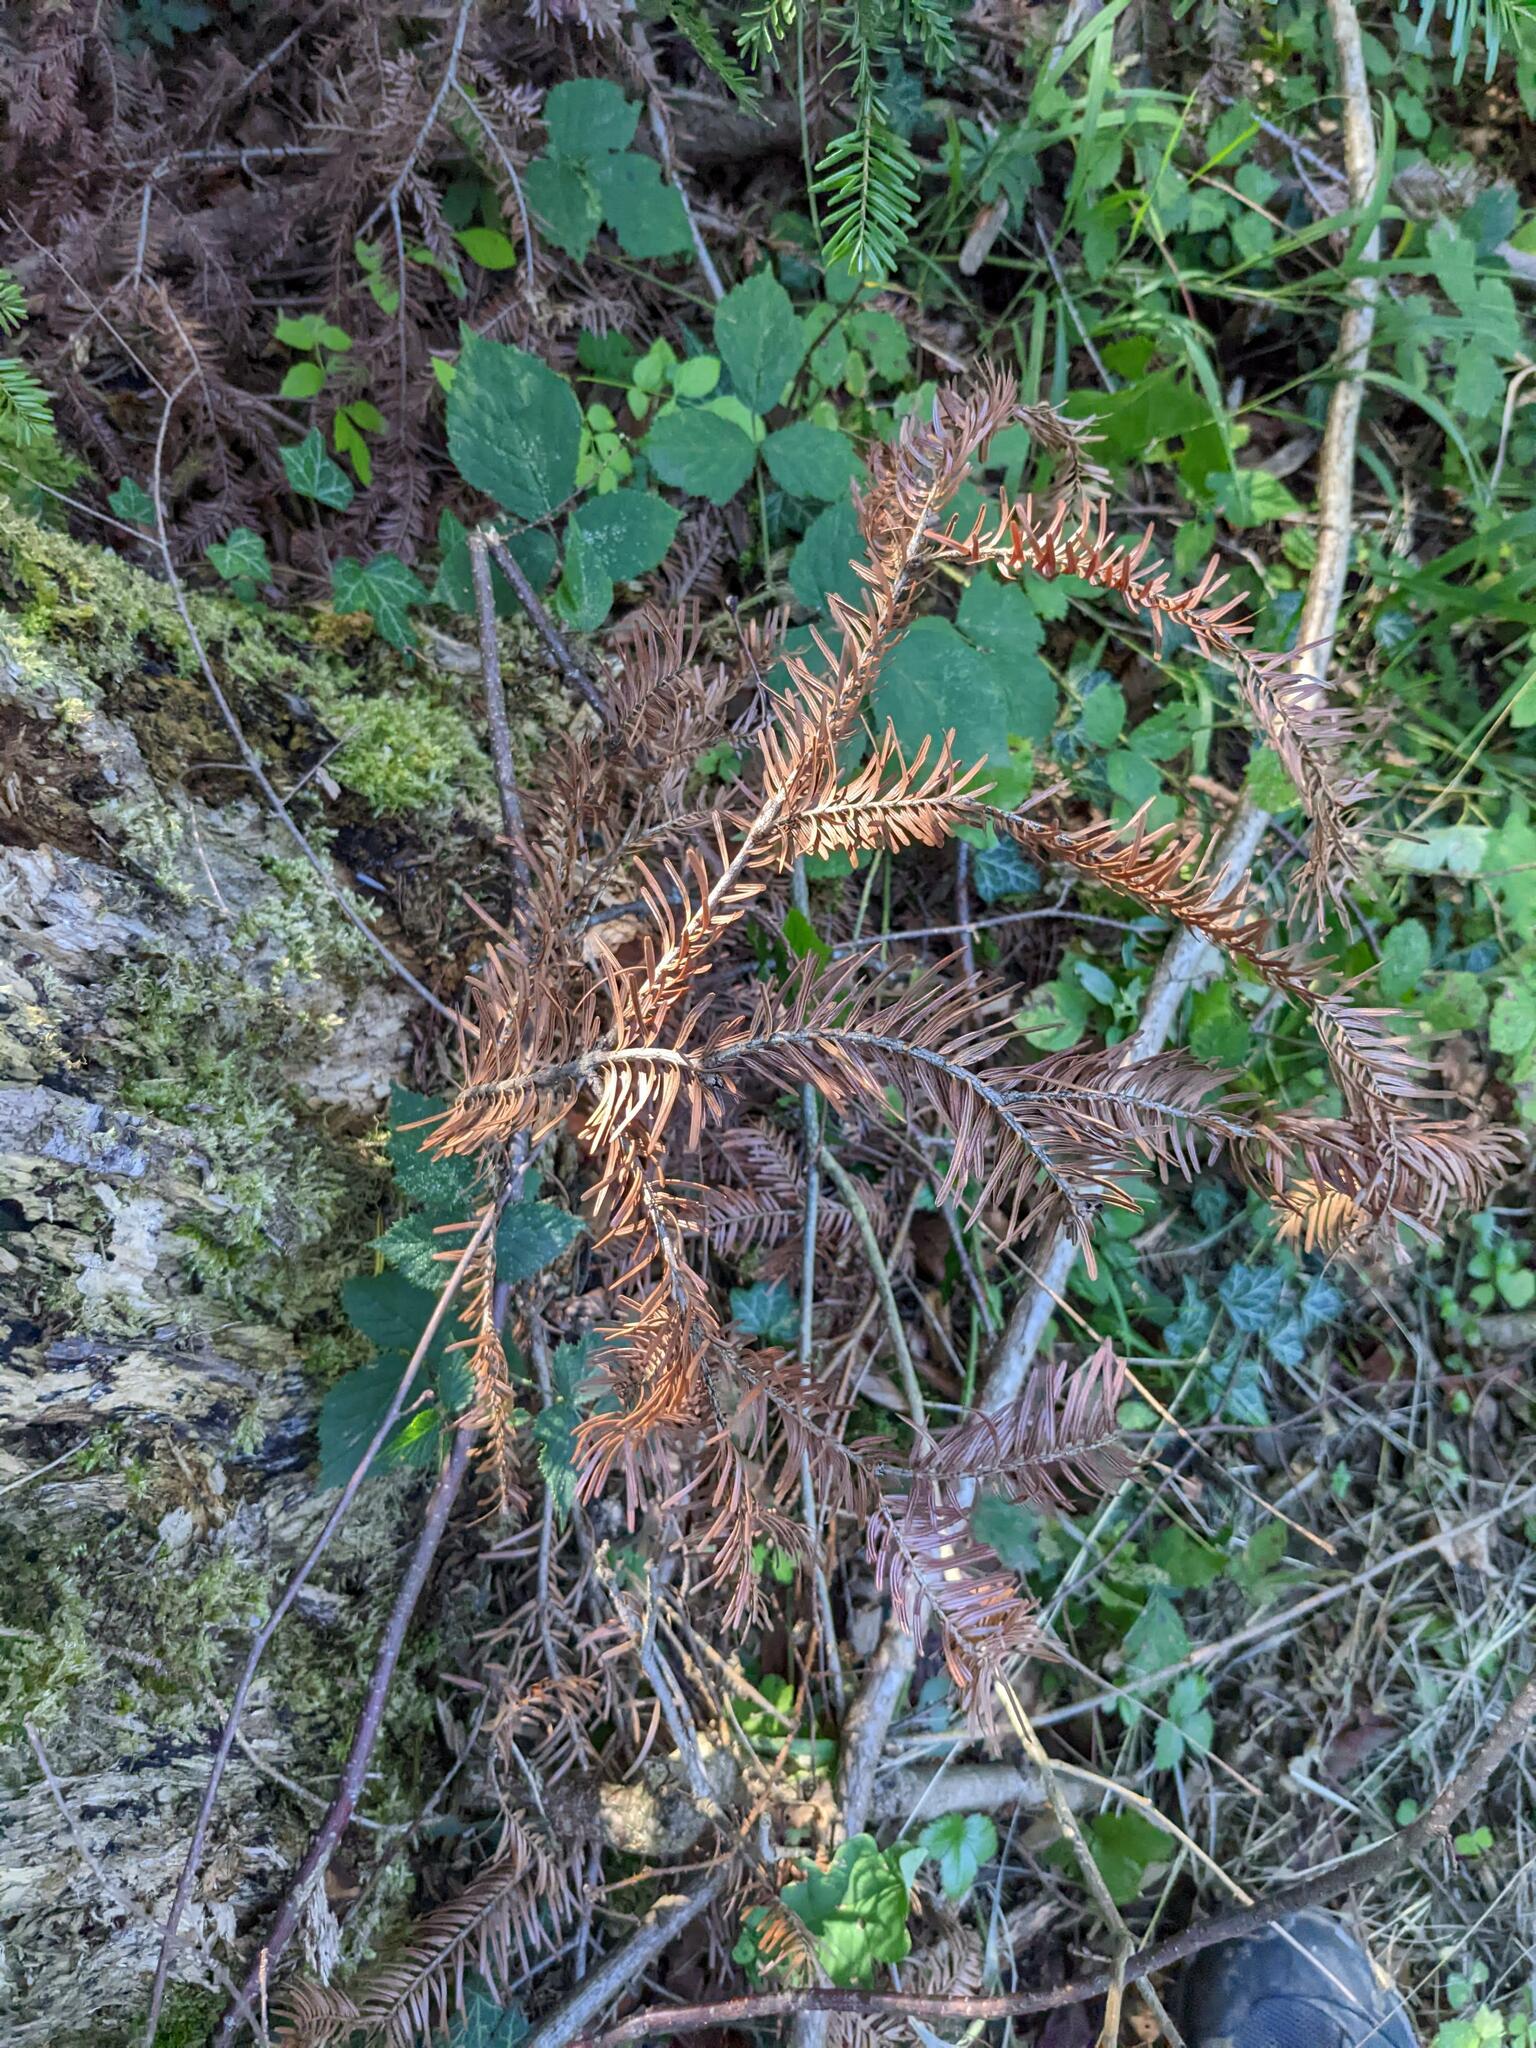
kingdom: Plantae
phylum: Tracheophyta
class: Pinopsida
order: Pinales
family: Pinaceae
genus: Abies
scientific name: Abies alba
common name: Silver fir
